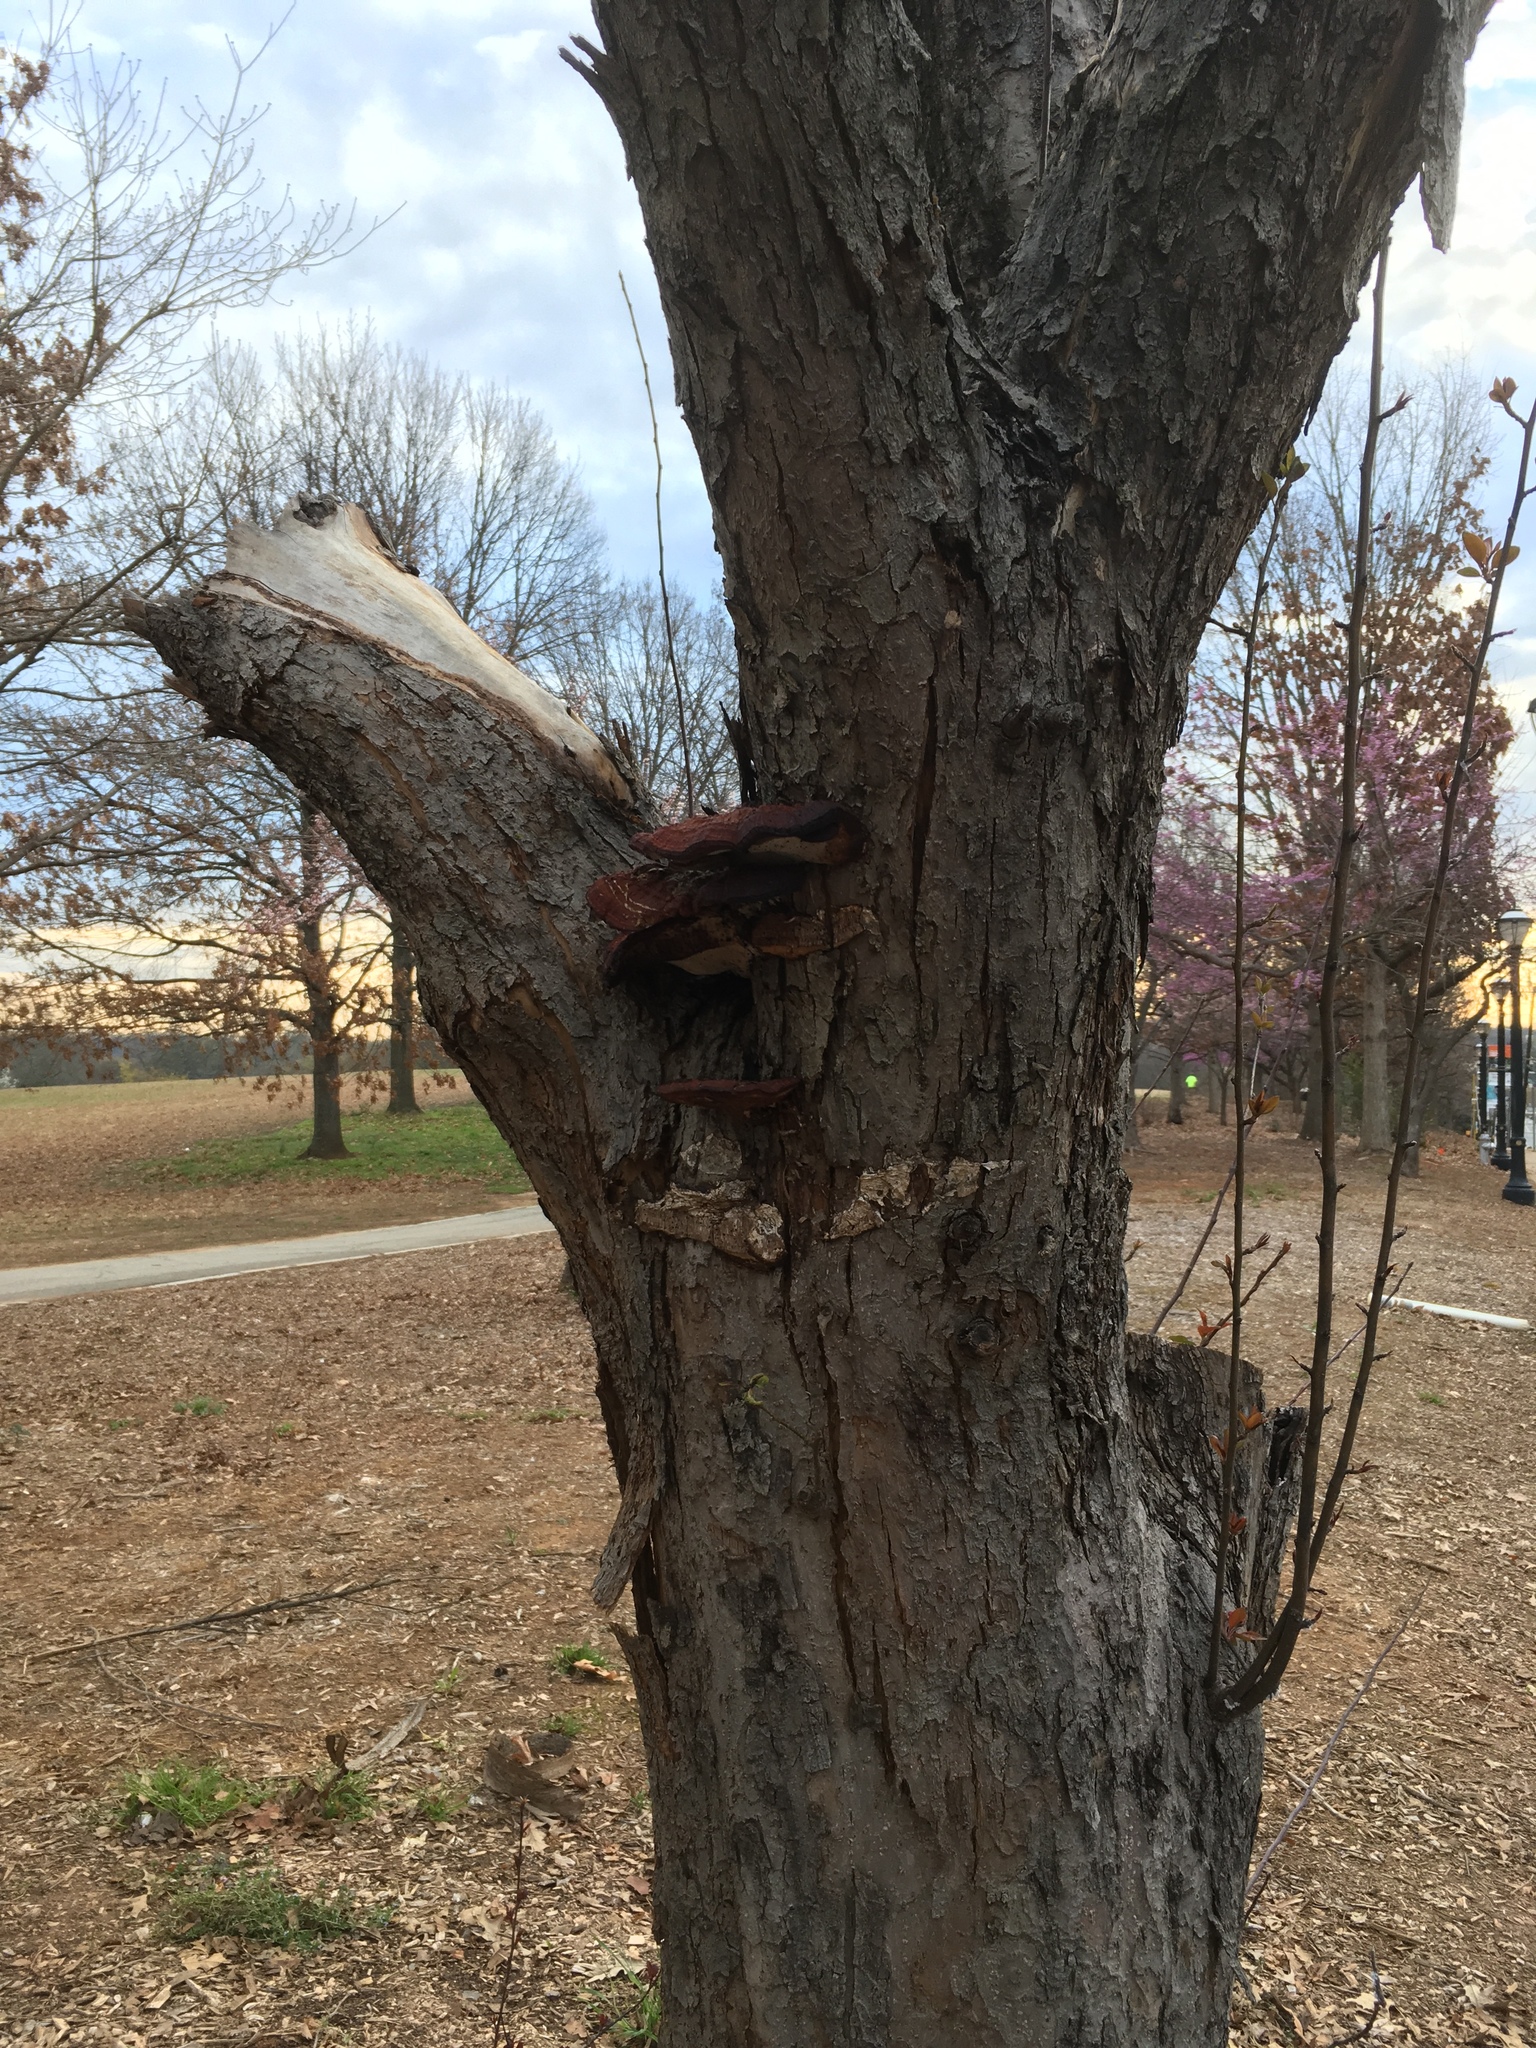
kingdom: Fungi
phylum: Basidiomycota
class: Agaricomycetes
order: Polyporales
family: Polyporaceae
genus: Ganoderma
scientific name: Ganoderma resinaceum
